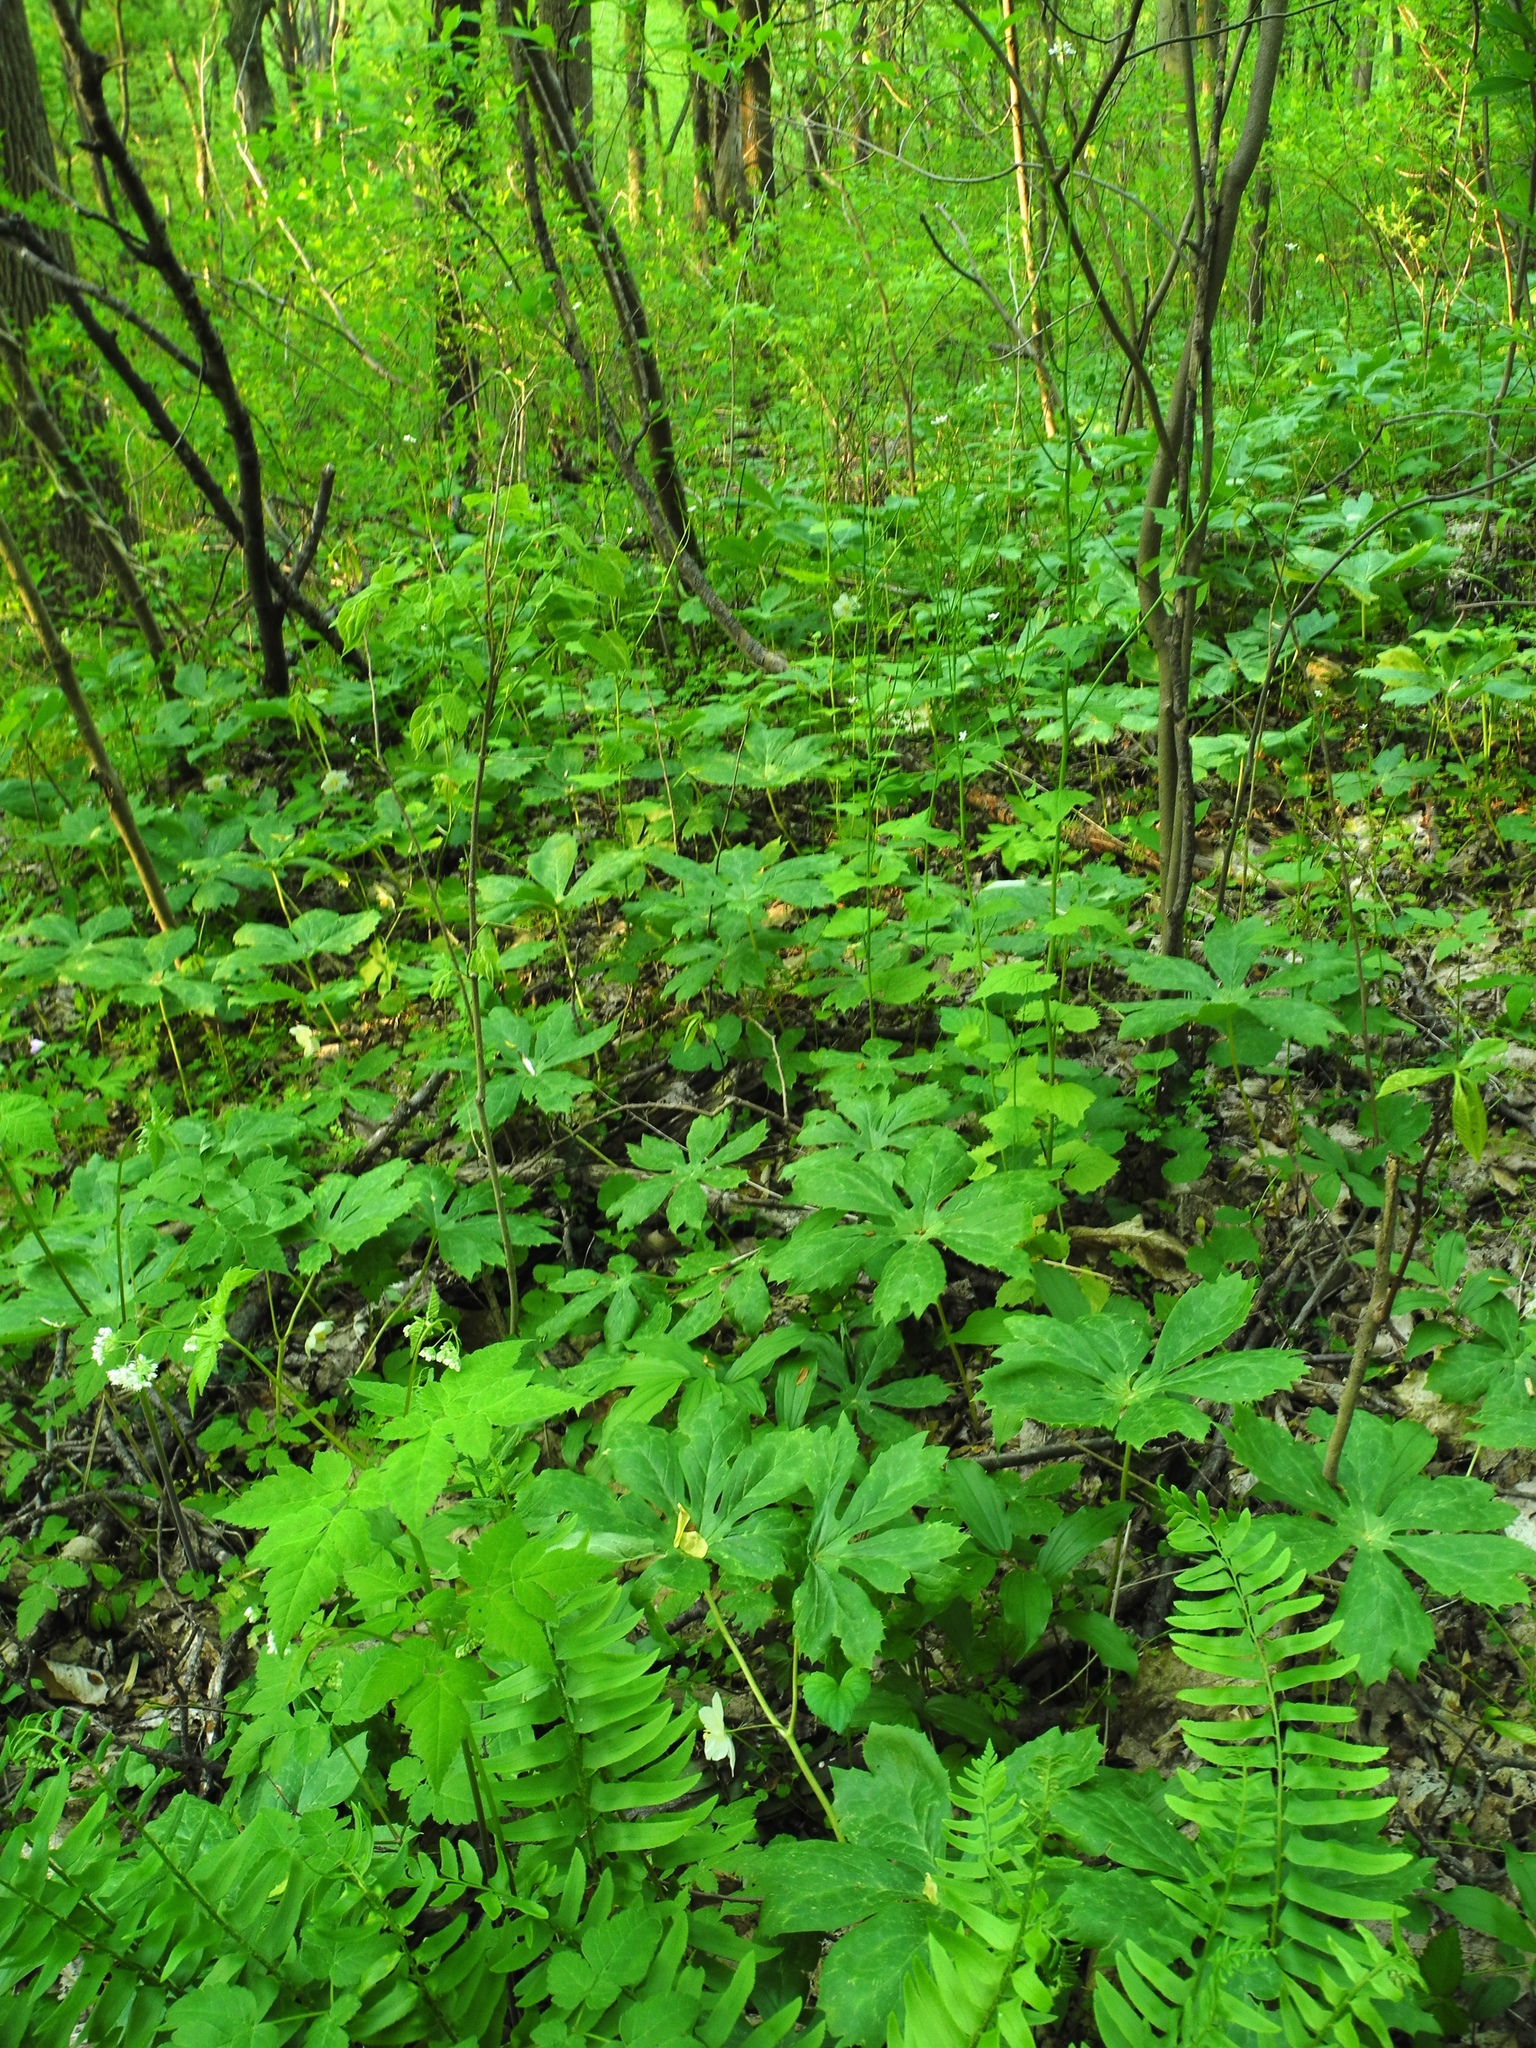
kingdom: Plantae
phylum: Tracheophyta
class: Magnoliopsida
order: Brassicales
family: Brassicaceae
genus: Alliaria
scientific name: Alliaria petiolata
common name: Garlic mustard
